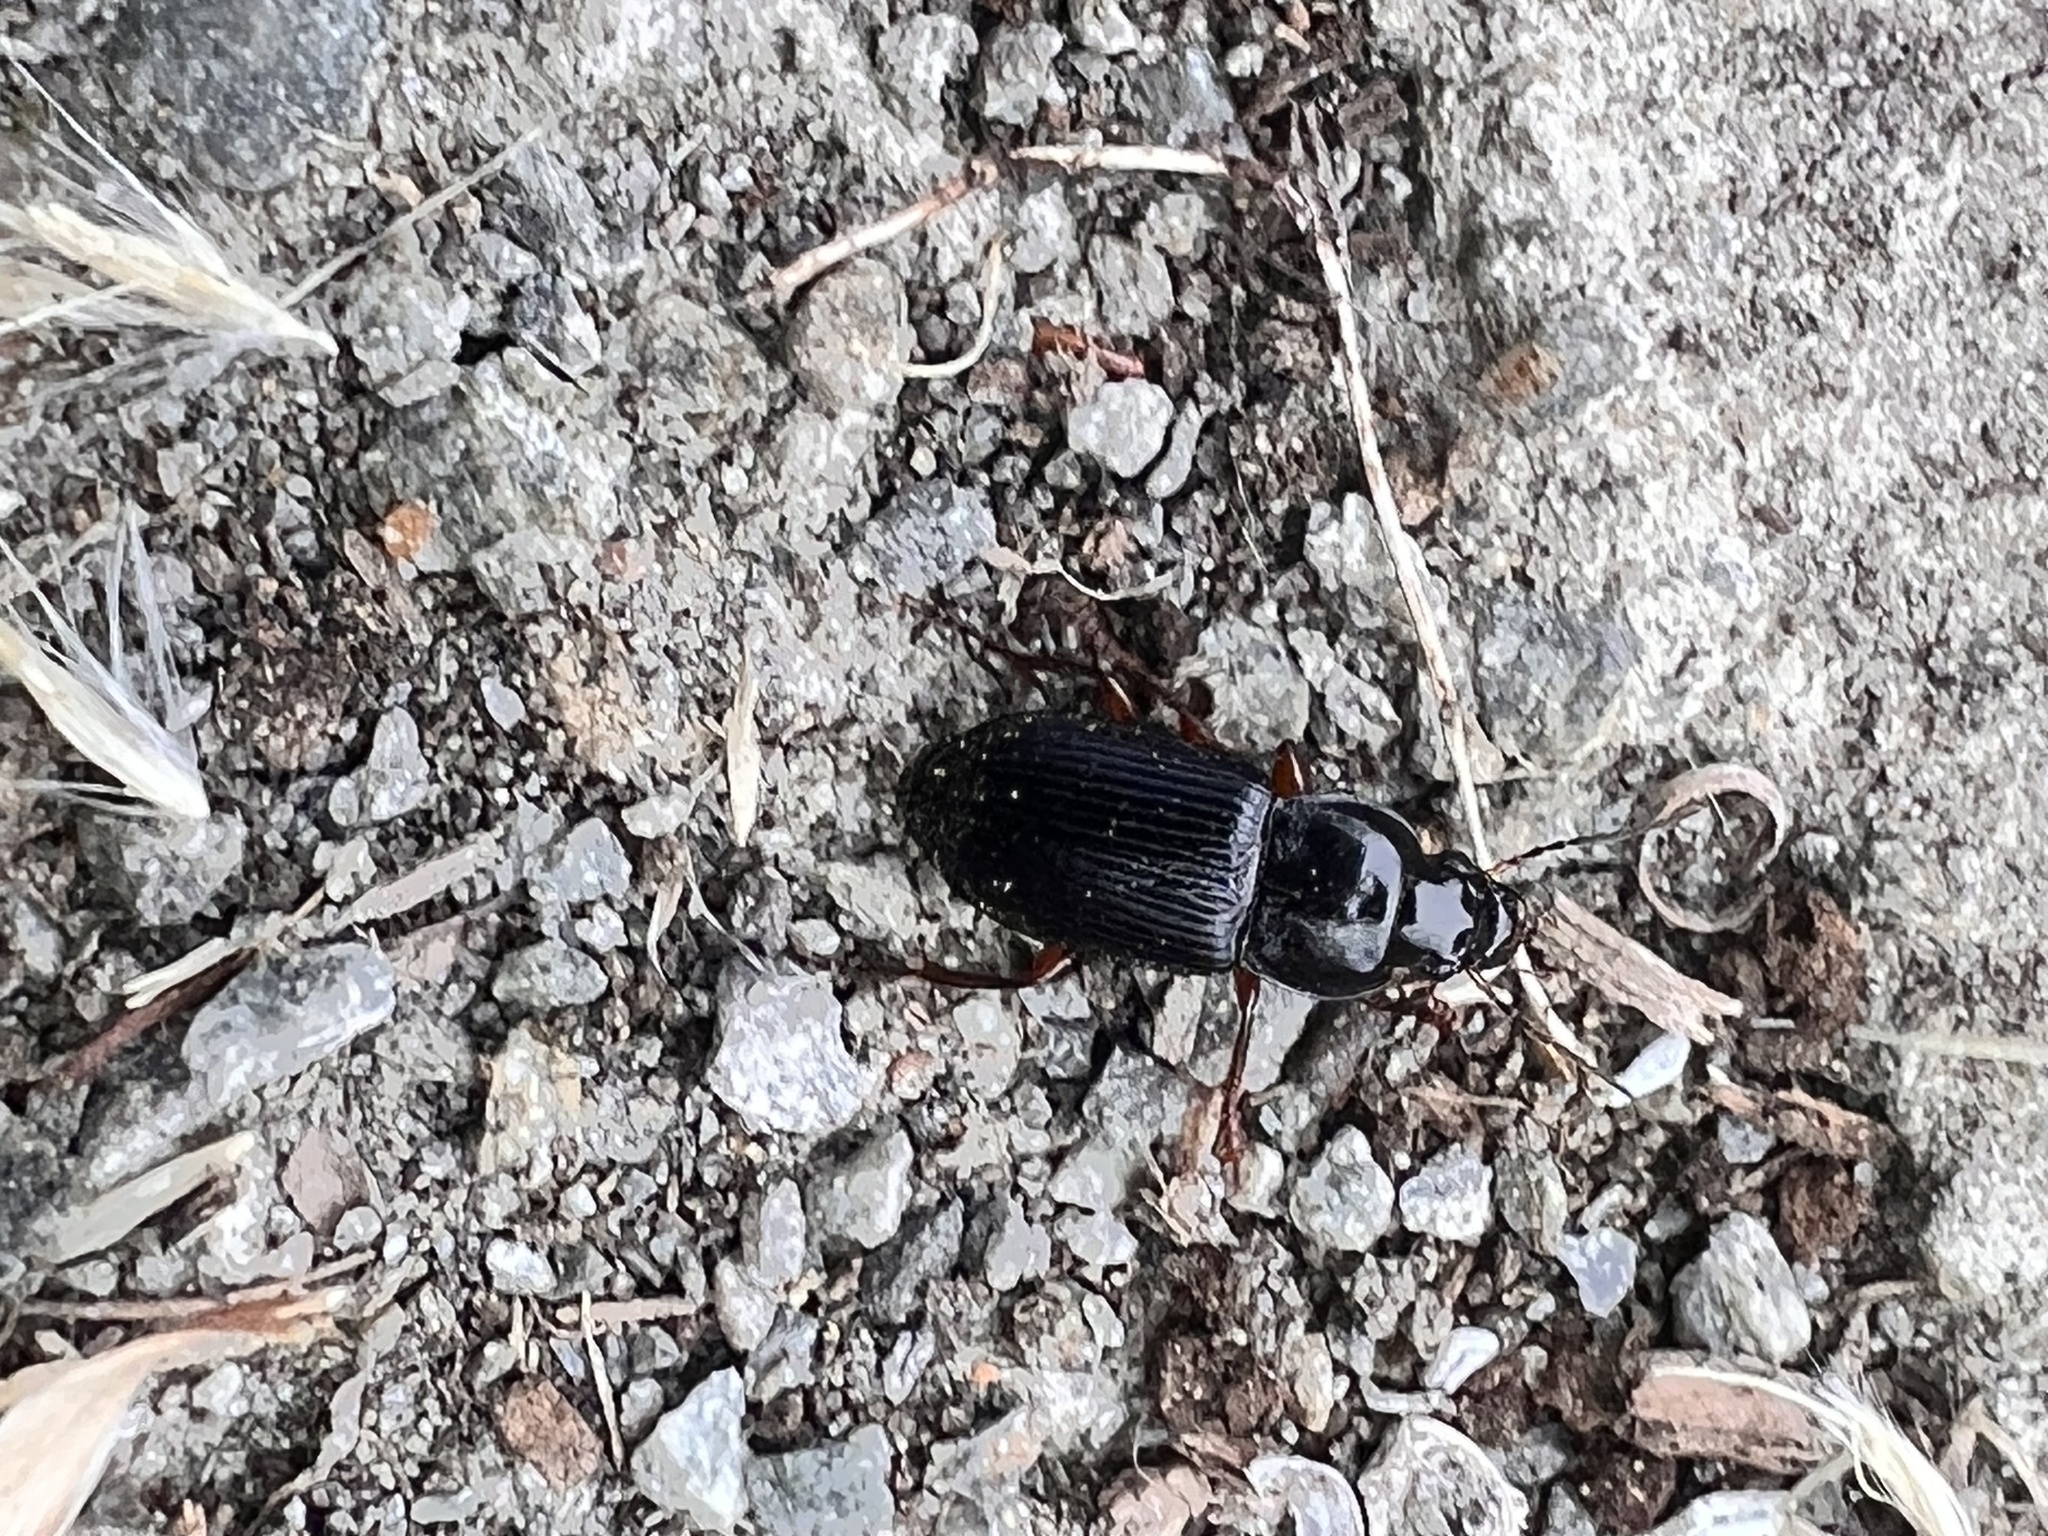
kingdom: Animalia
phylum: Arthropoda
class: Insecta
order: Coleoptera
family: Carabidae
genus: Anisodactylus
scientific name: Anisodactylus binotatus
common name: Two-marked harp ground beetle
